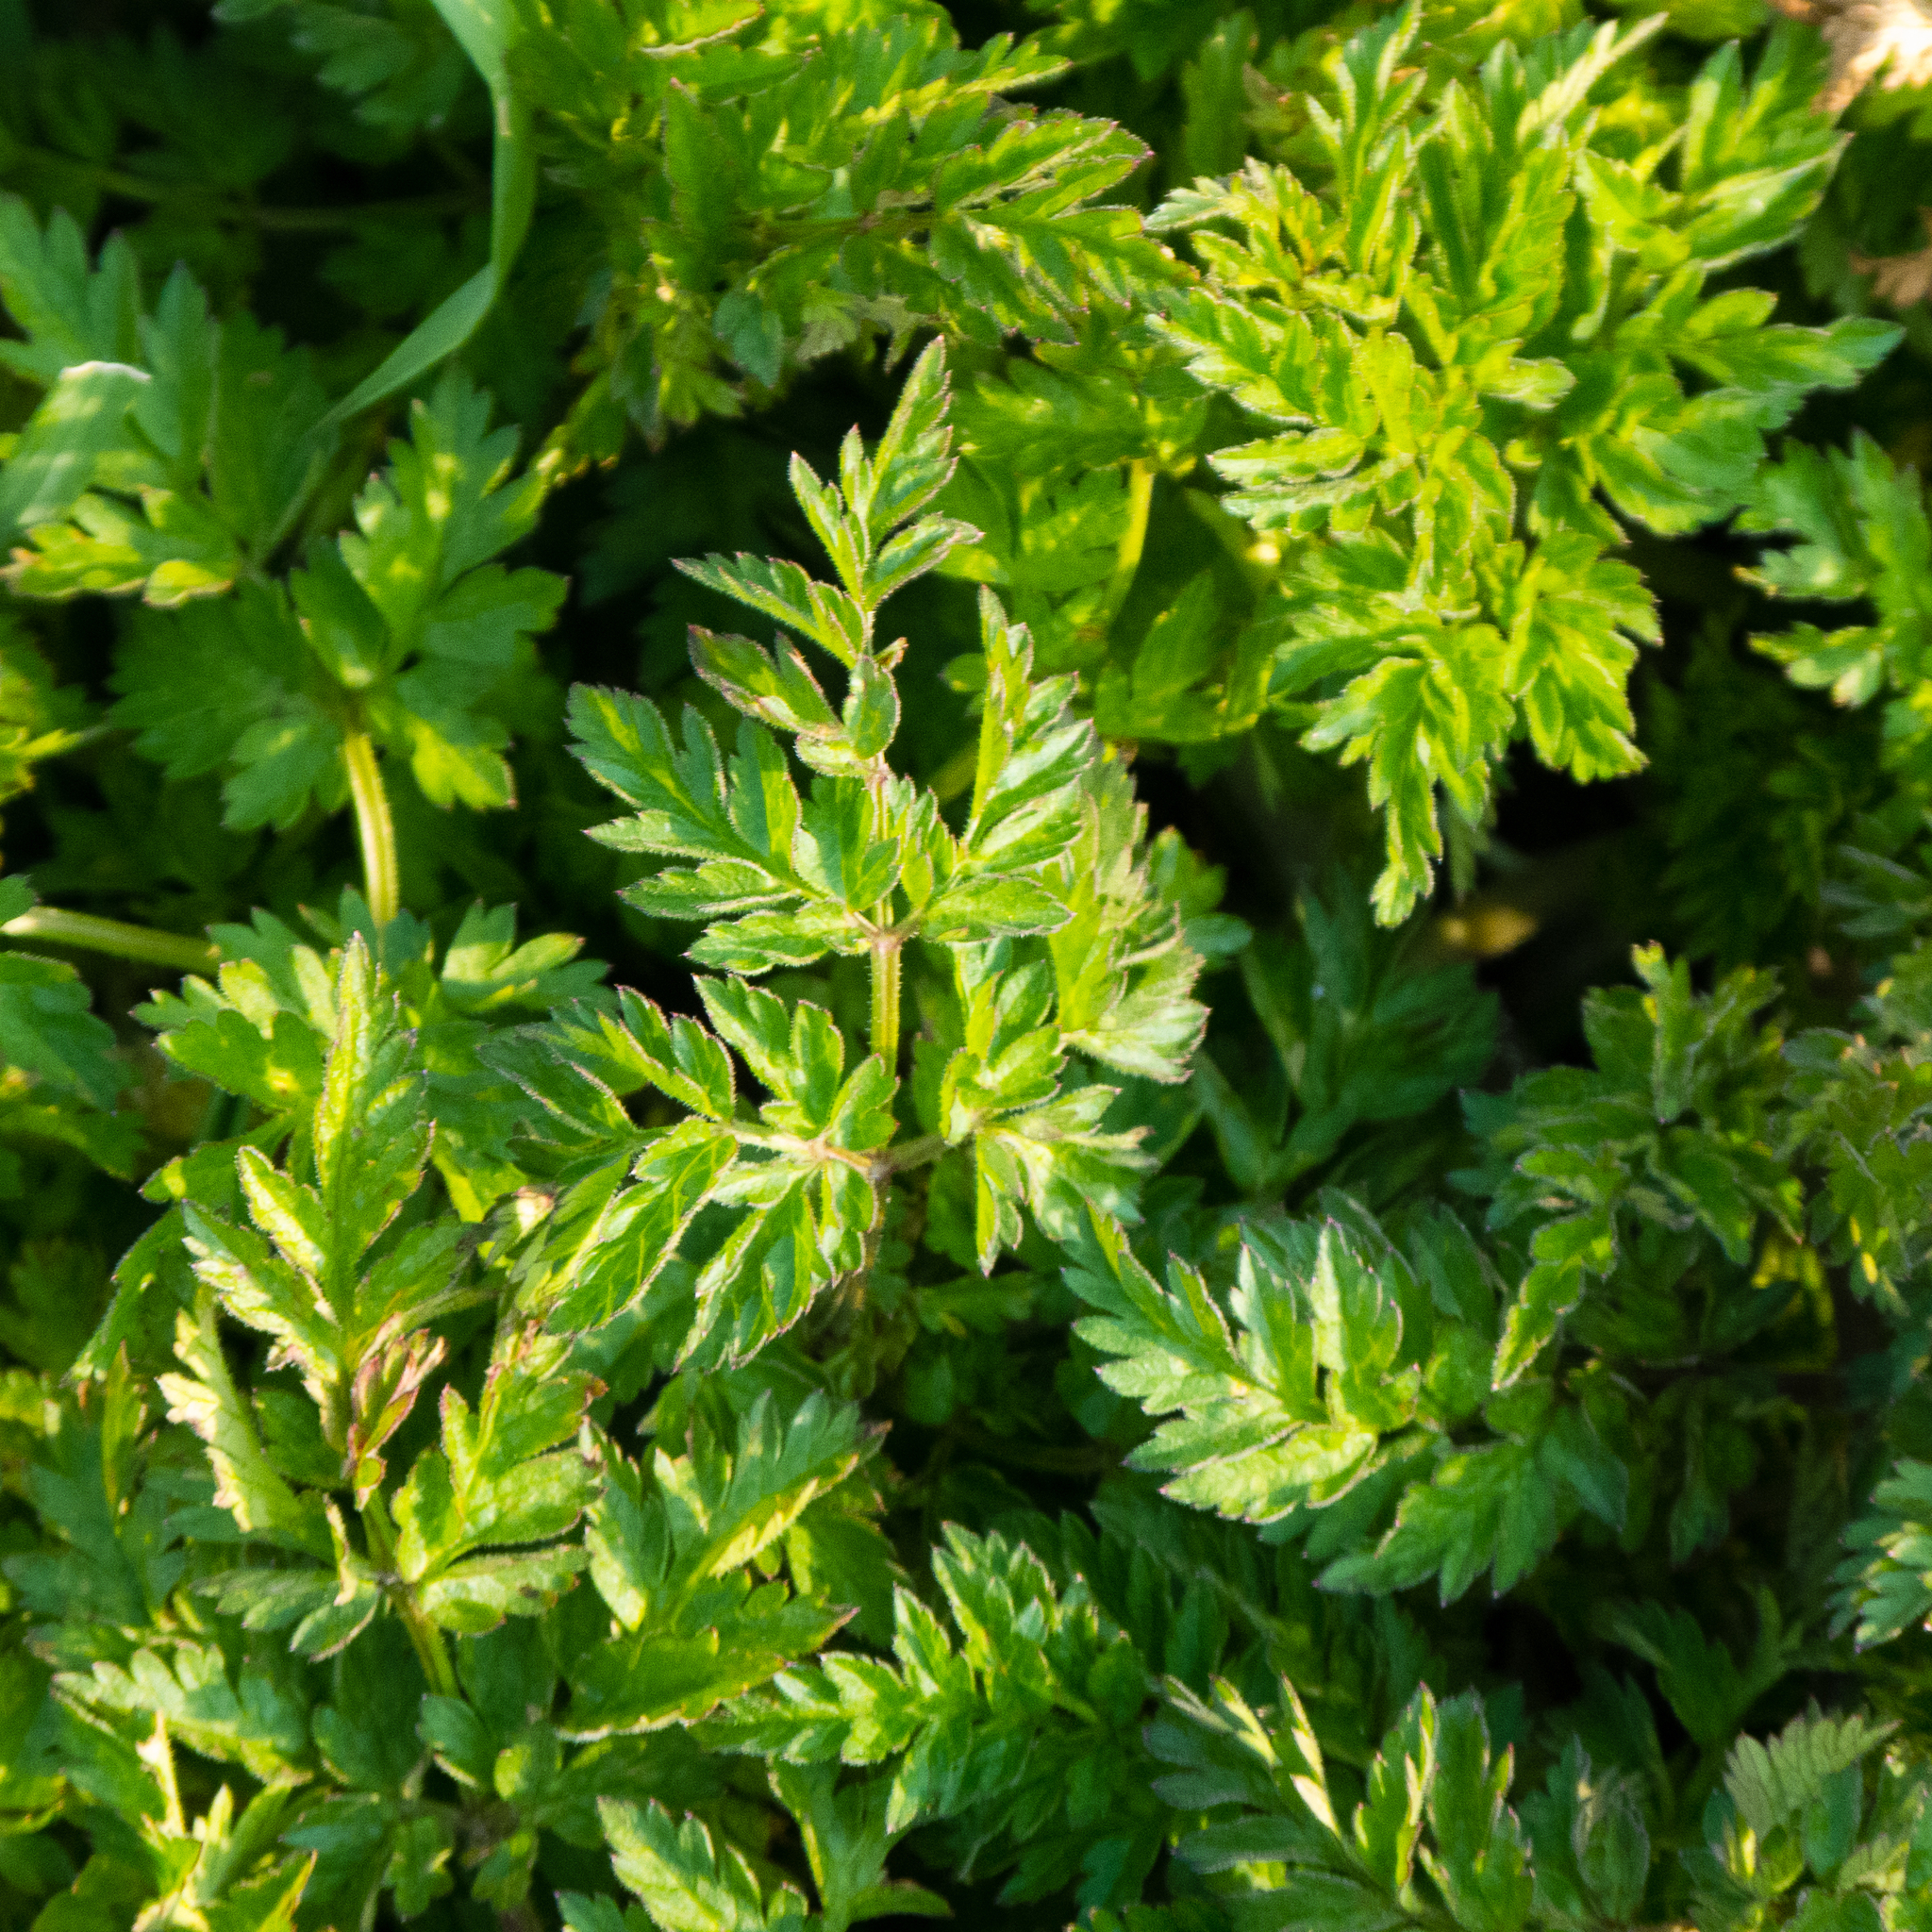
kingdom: Plantae
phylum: Tracheophyta
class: Magnoliopsida
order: Apiales
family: Apiaceae
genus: Anthriscus
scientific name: Anthriscus sylvestris
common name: Cow parsley
